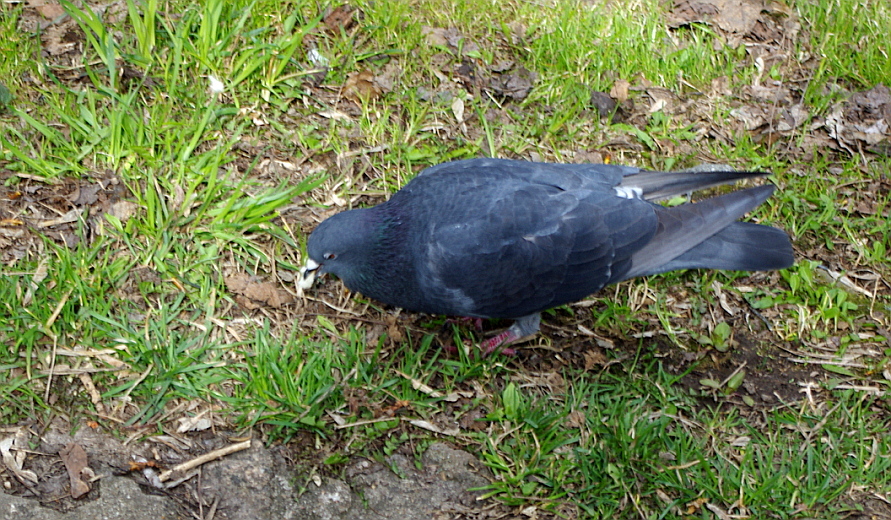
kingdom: Animalia
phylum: Chordata
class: Aves
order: Columbiformes
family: Columbidae
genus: Columba
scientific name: Columba livia
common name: Rock pigeon
